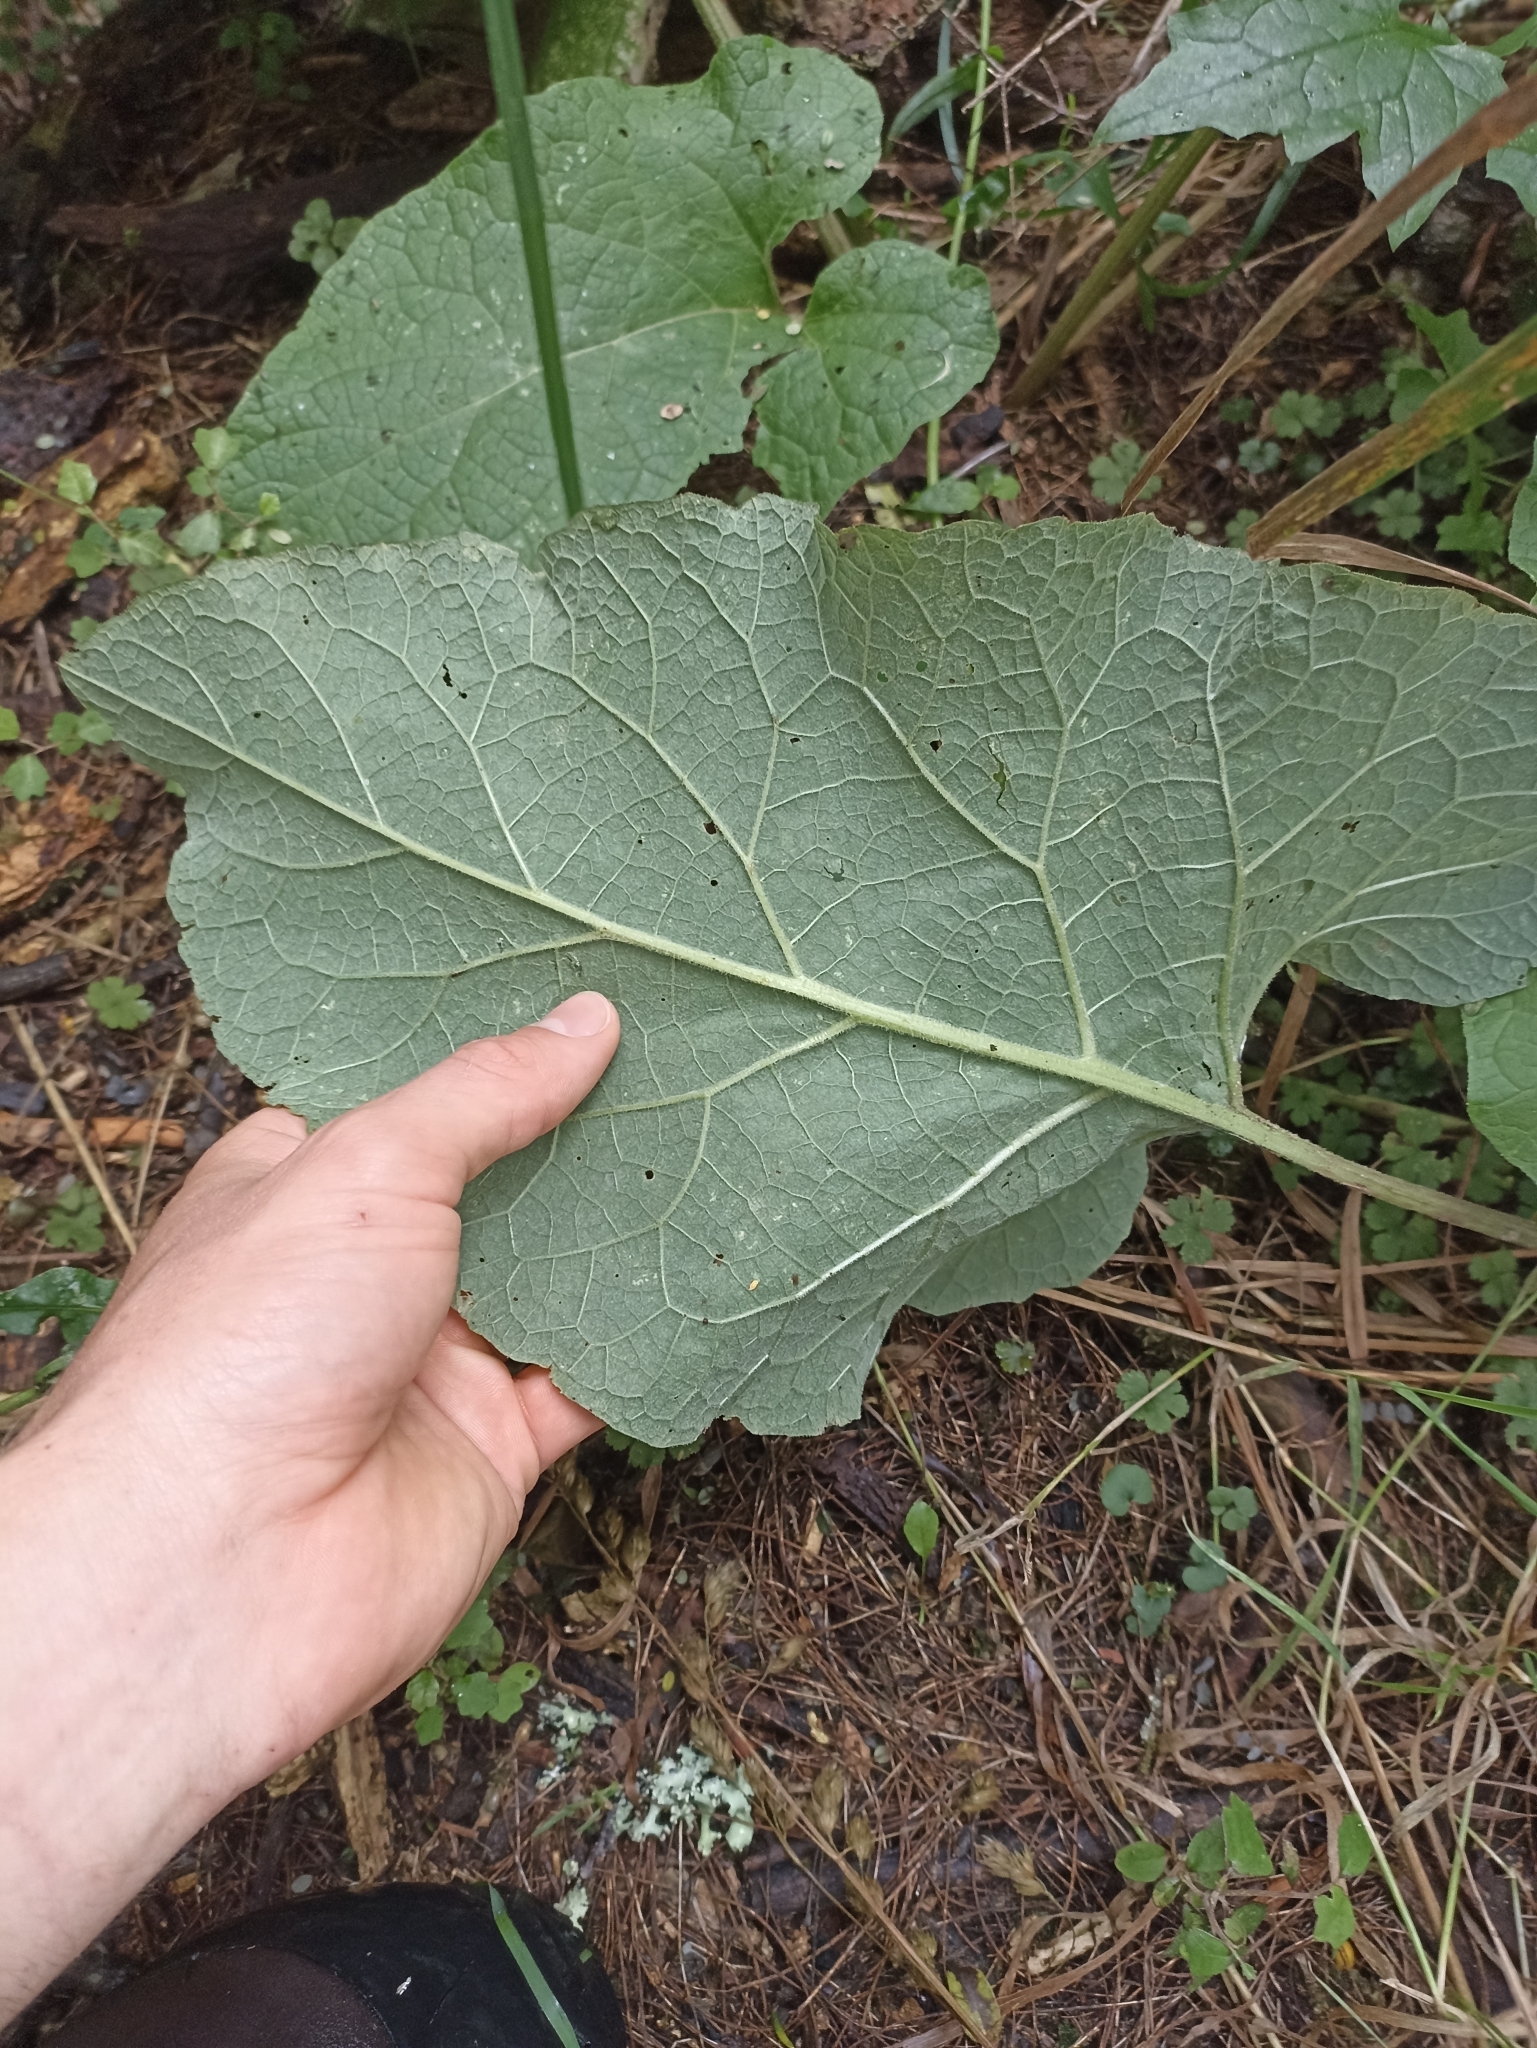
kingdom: Plantae
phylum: Tracheophyta
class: Magnoliopsida
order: Asterales
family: Asteraceae
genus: Arctium
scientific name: Arctium minus
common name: Lesser burdock
